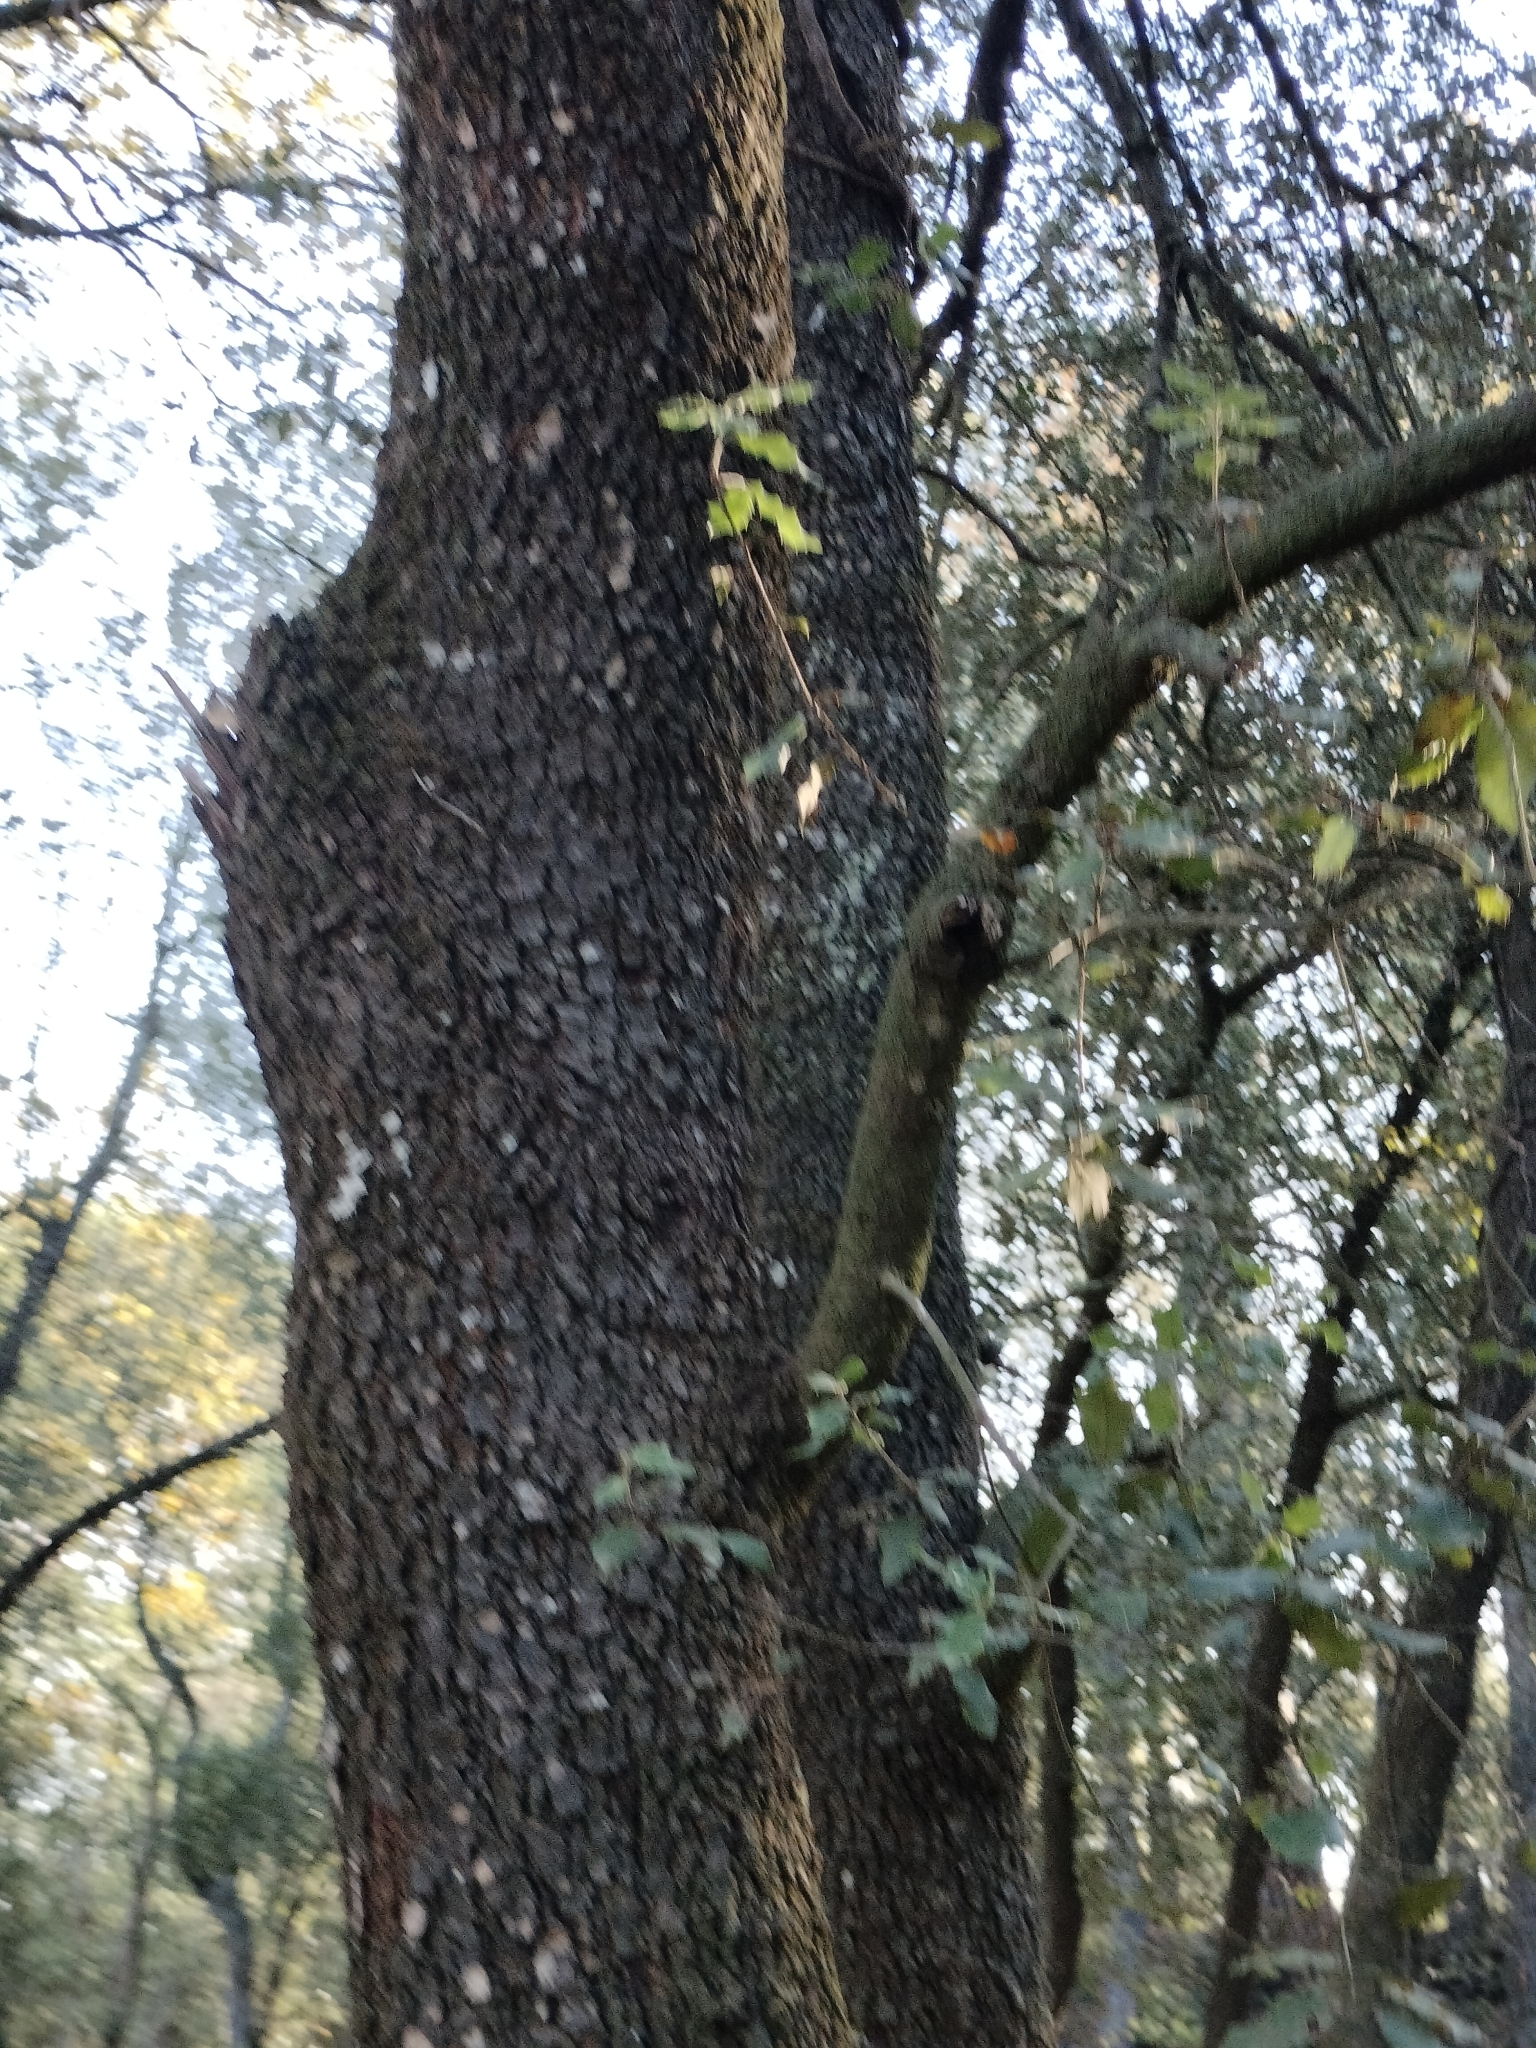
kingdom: Plantae
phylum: Tracheophyta
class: Magnoliopsida
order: Fagales
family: Fagaceae
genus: Quercus
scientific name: Quercus ilex
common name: Evergreen oak
